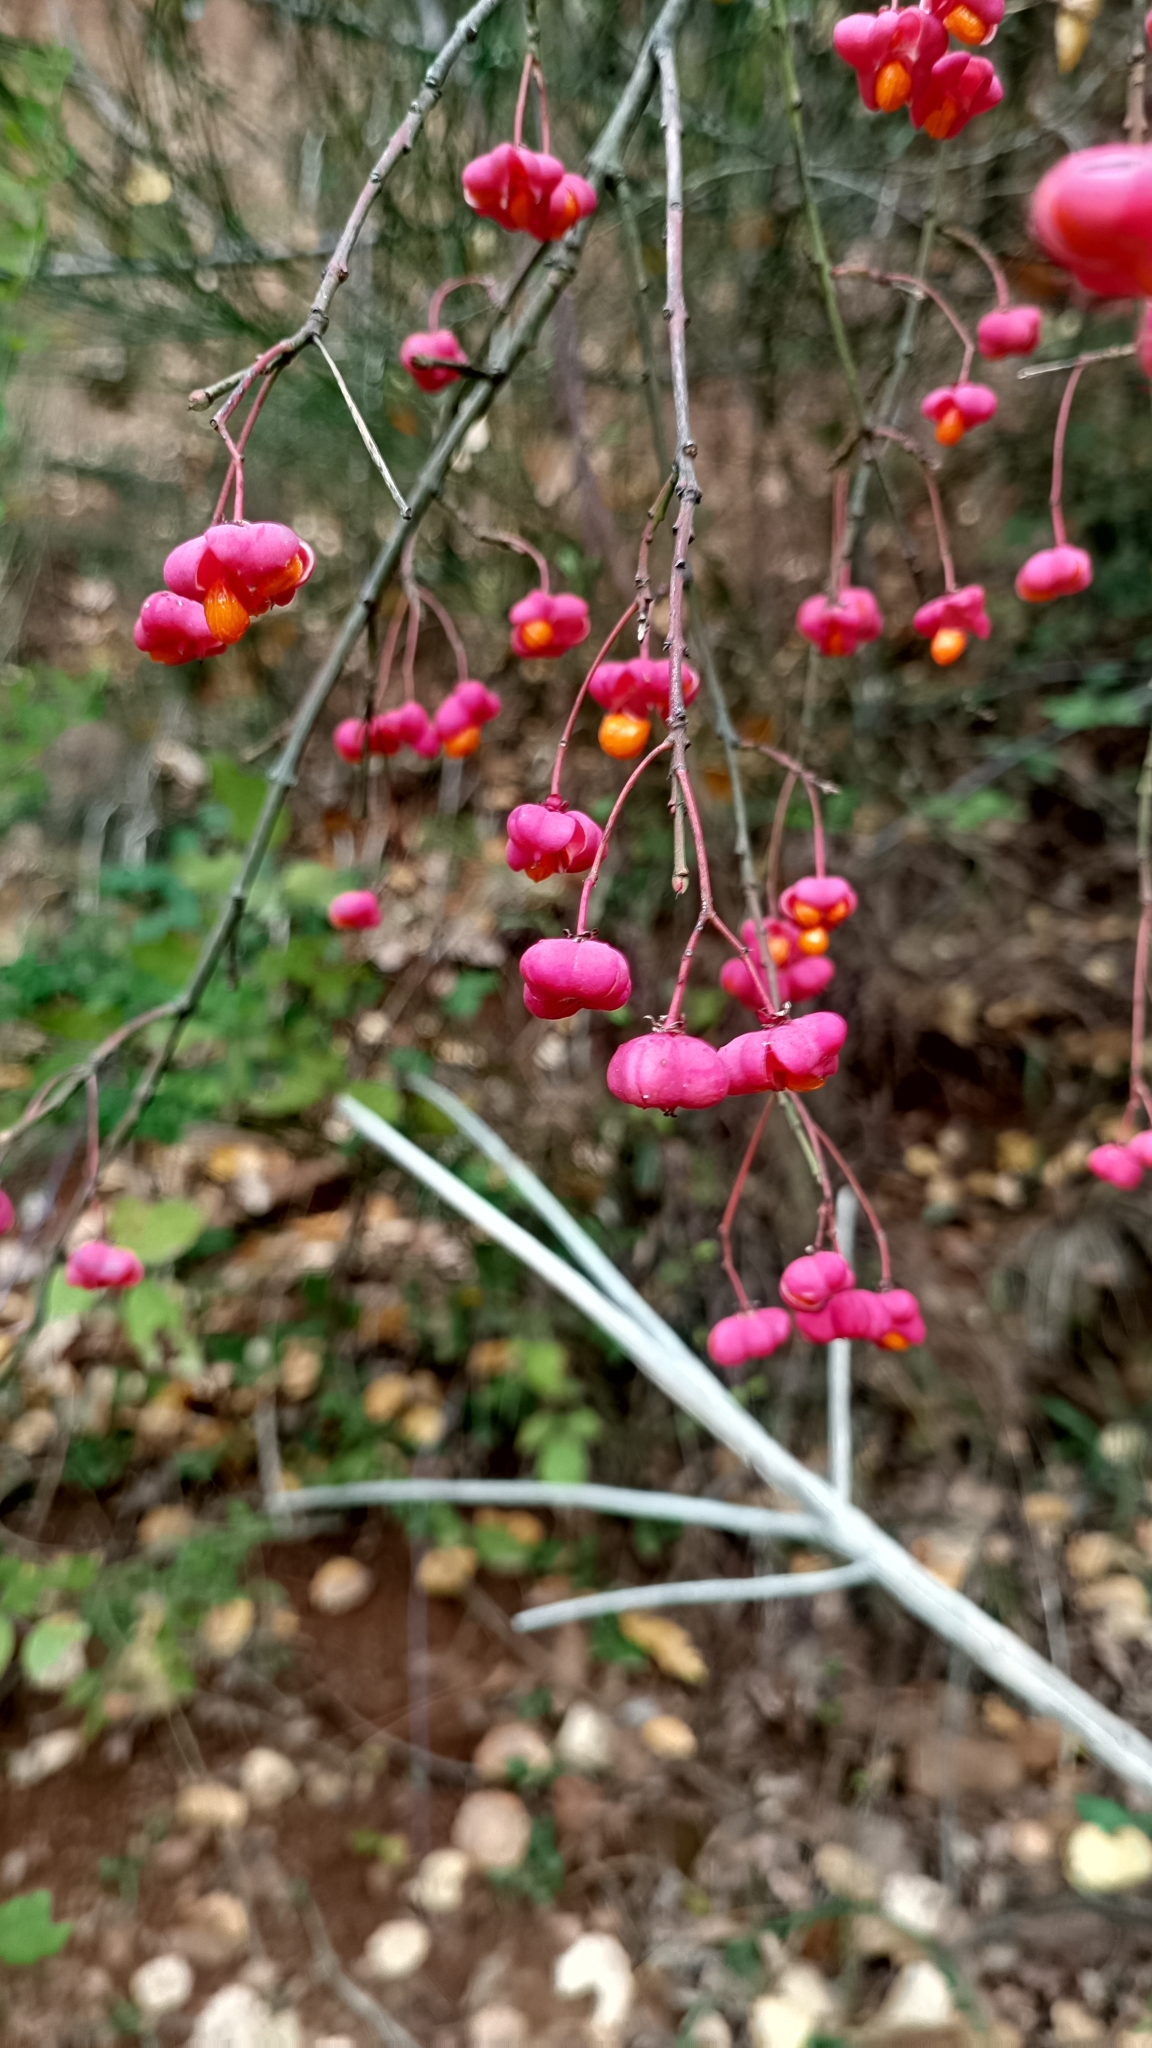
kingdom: Plantae
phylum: Tracheophyta
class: Magnoliopsida
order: Celastrales
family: Celastraceae
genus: Euonymus
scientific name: Euonymus europaeus
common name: Spindle
